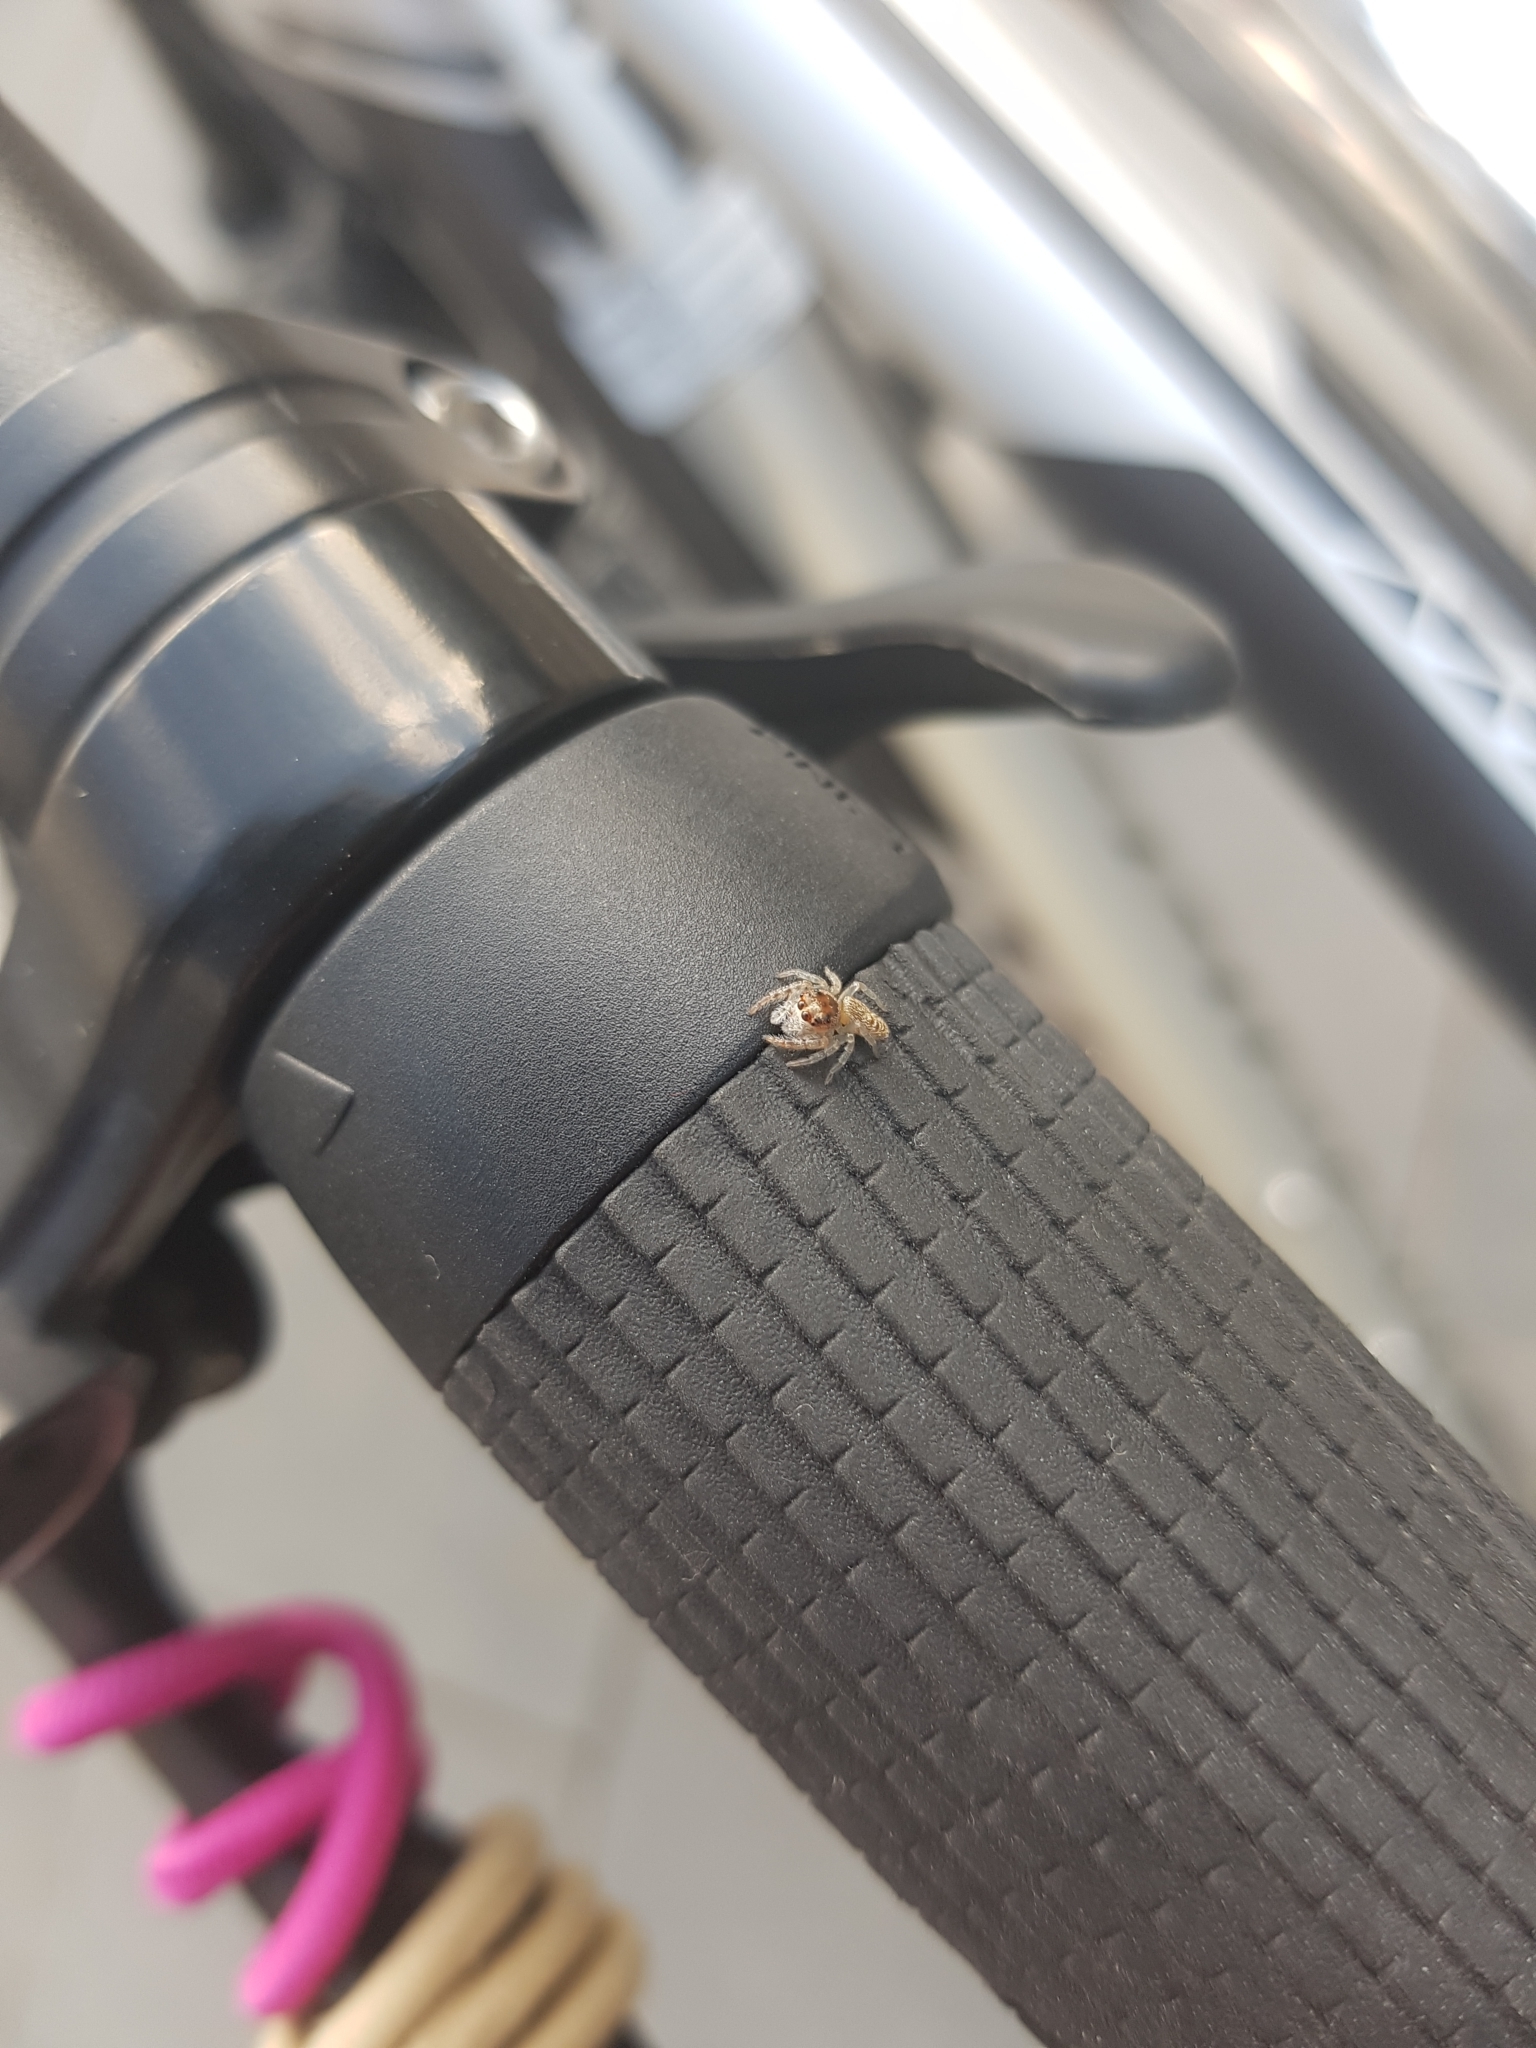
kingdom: Animalia
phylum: Arthropoda
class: Arachnida
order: Araneae
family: Salticidae
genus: Opisthoncus
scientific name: Opisthoncus polyphemus
